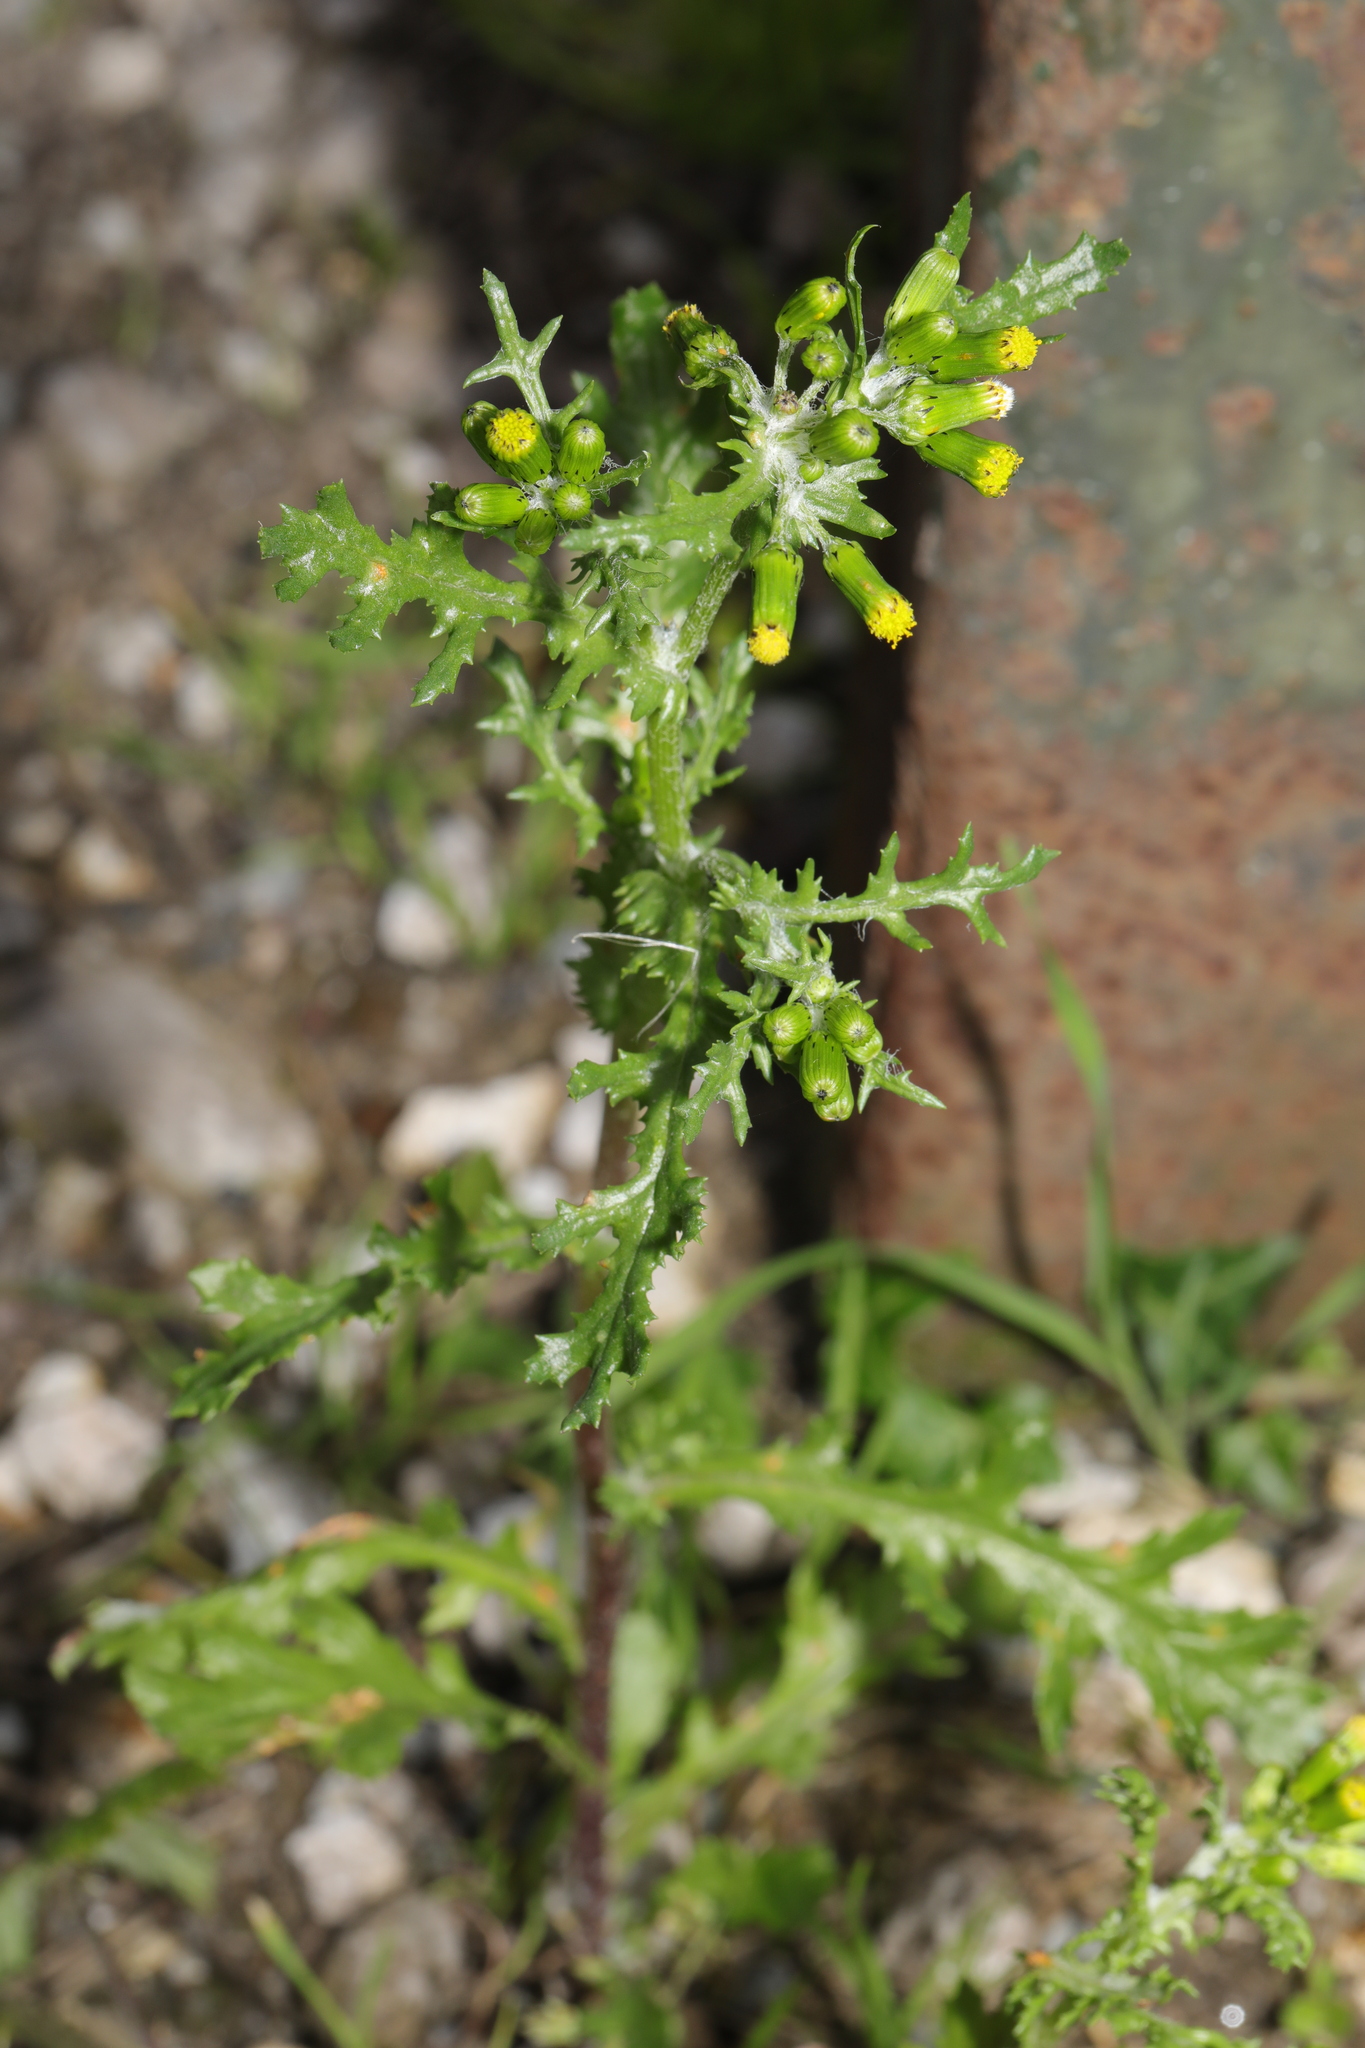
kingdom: Plantae
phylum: Tracheophyta
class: Magnoliopsida
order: Asterales
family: Asteraceae
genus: Senecio
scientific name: Senecio vulgaris
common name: Old-man-in-the-spring
